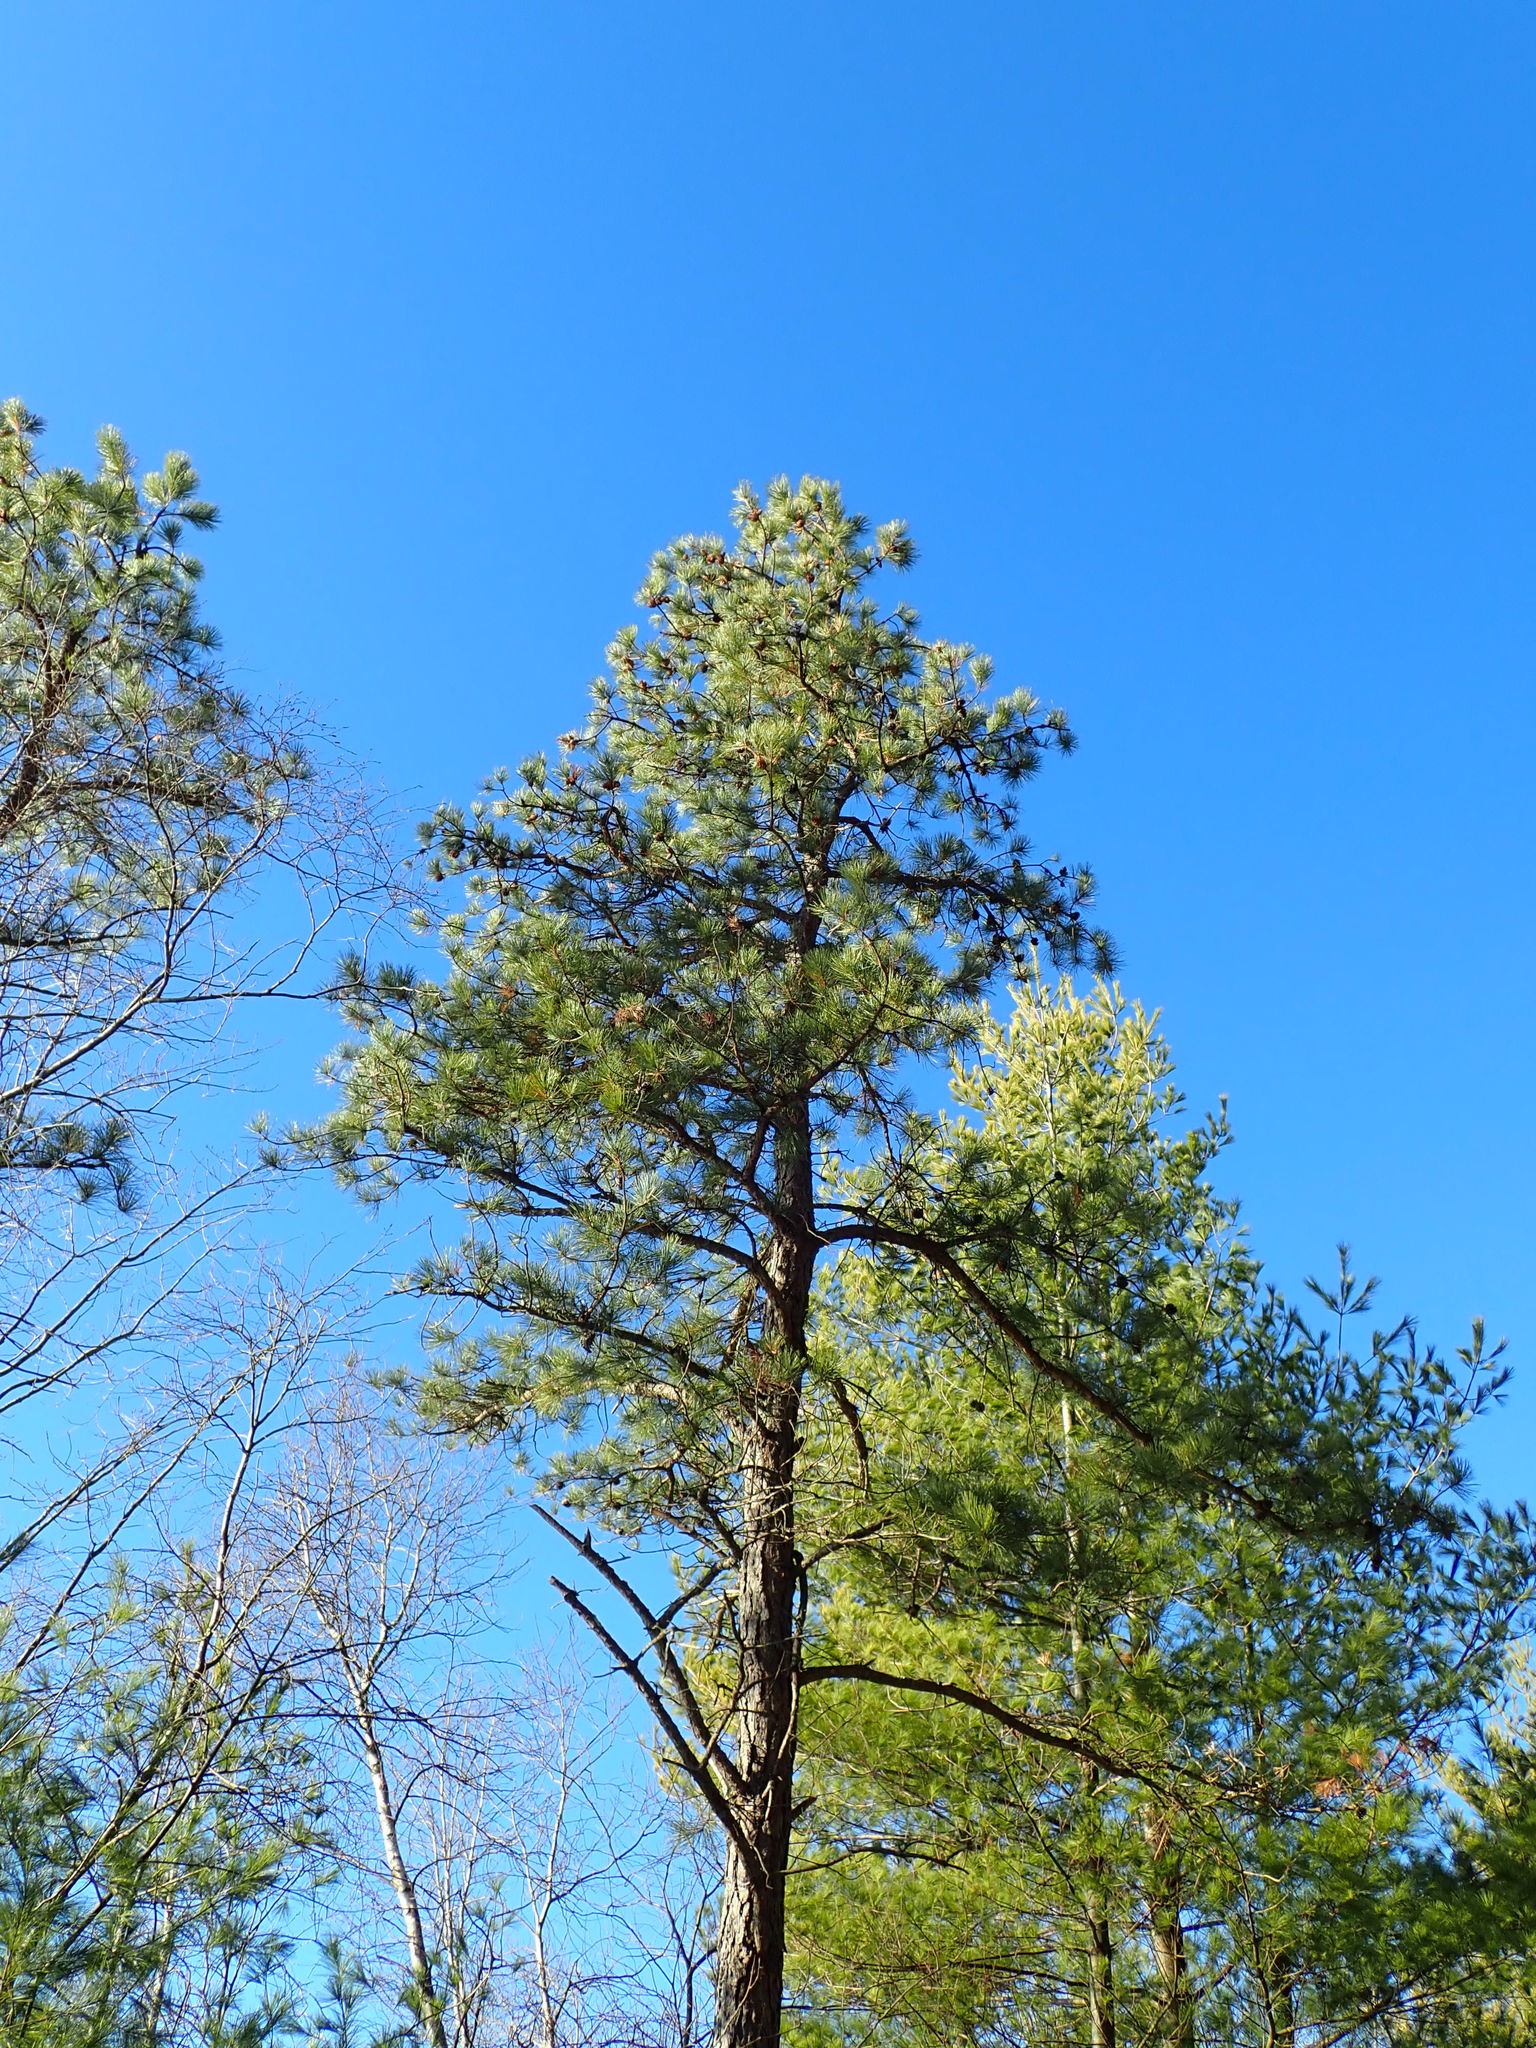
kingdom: Plantae
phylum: Tracheophyta
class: Pinopsida
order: Pinales
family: Pinaceae
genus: Pinus
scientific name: Pinus rigida
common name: Pitch pine
